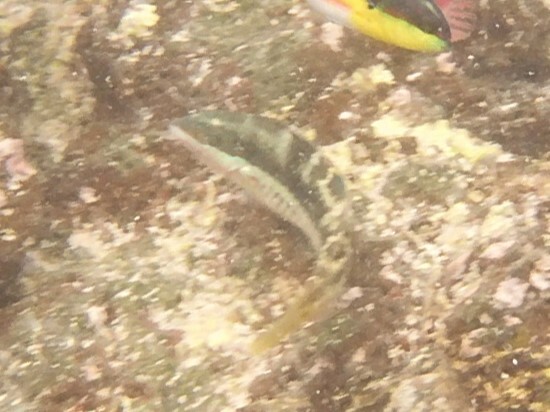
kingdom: Animalia
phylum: Chordata
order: Perciformes
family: Labridae
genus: Halichoeres
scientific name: Halichoeres nicholsi
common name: Spinster wrasse
